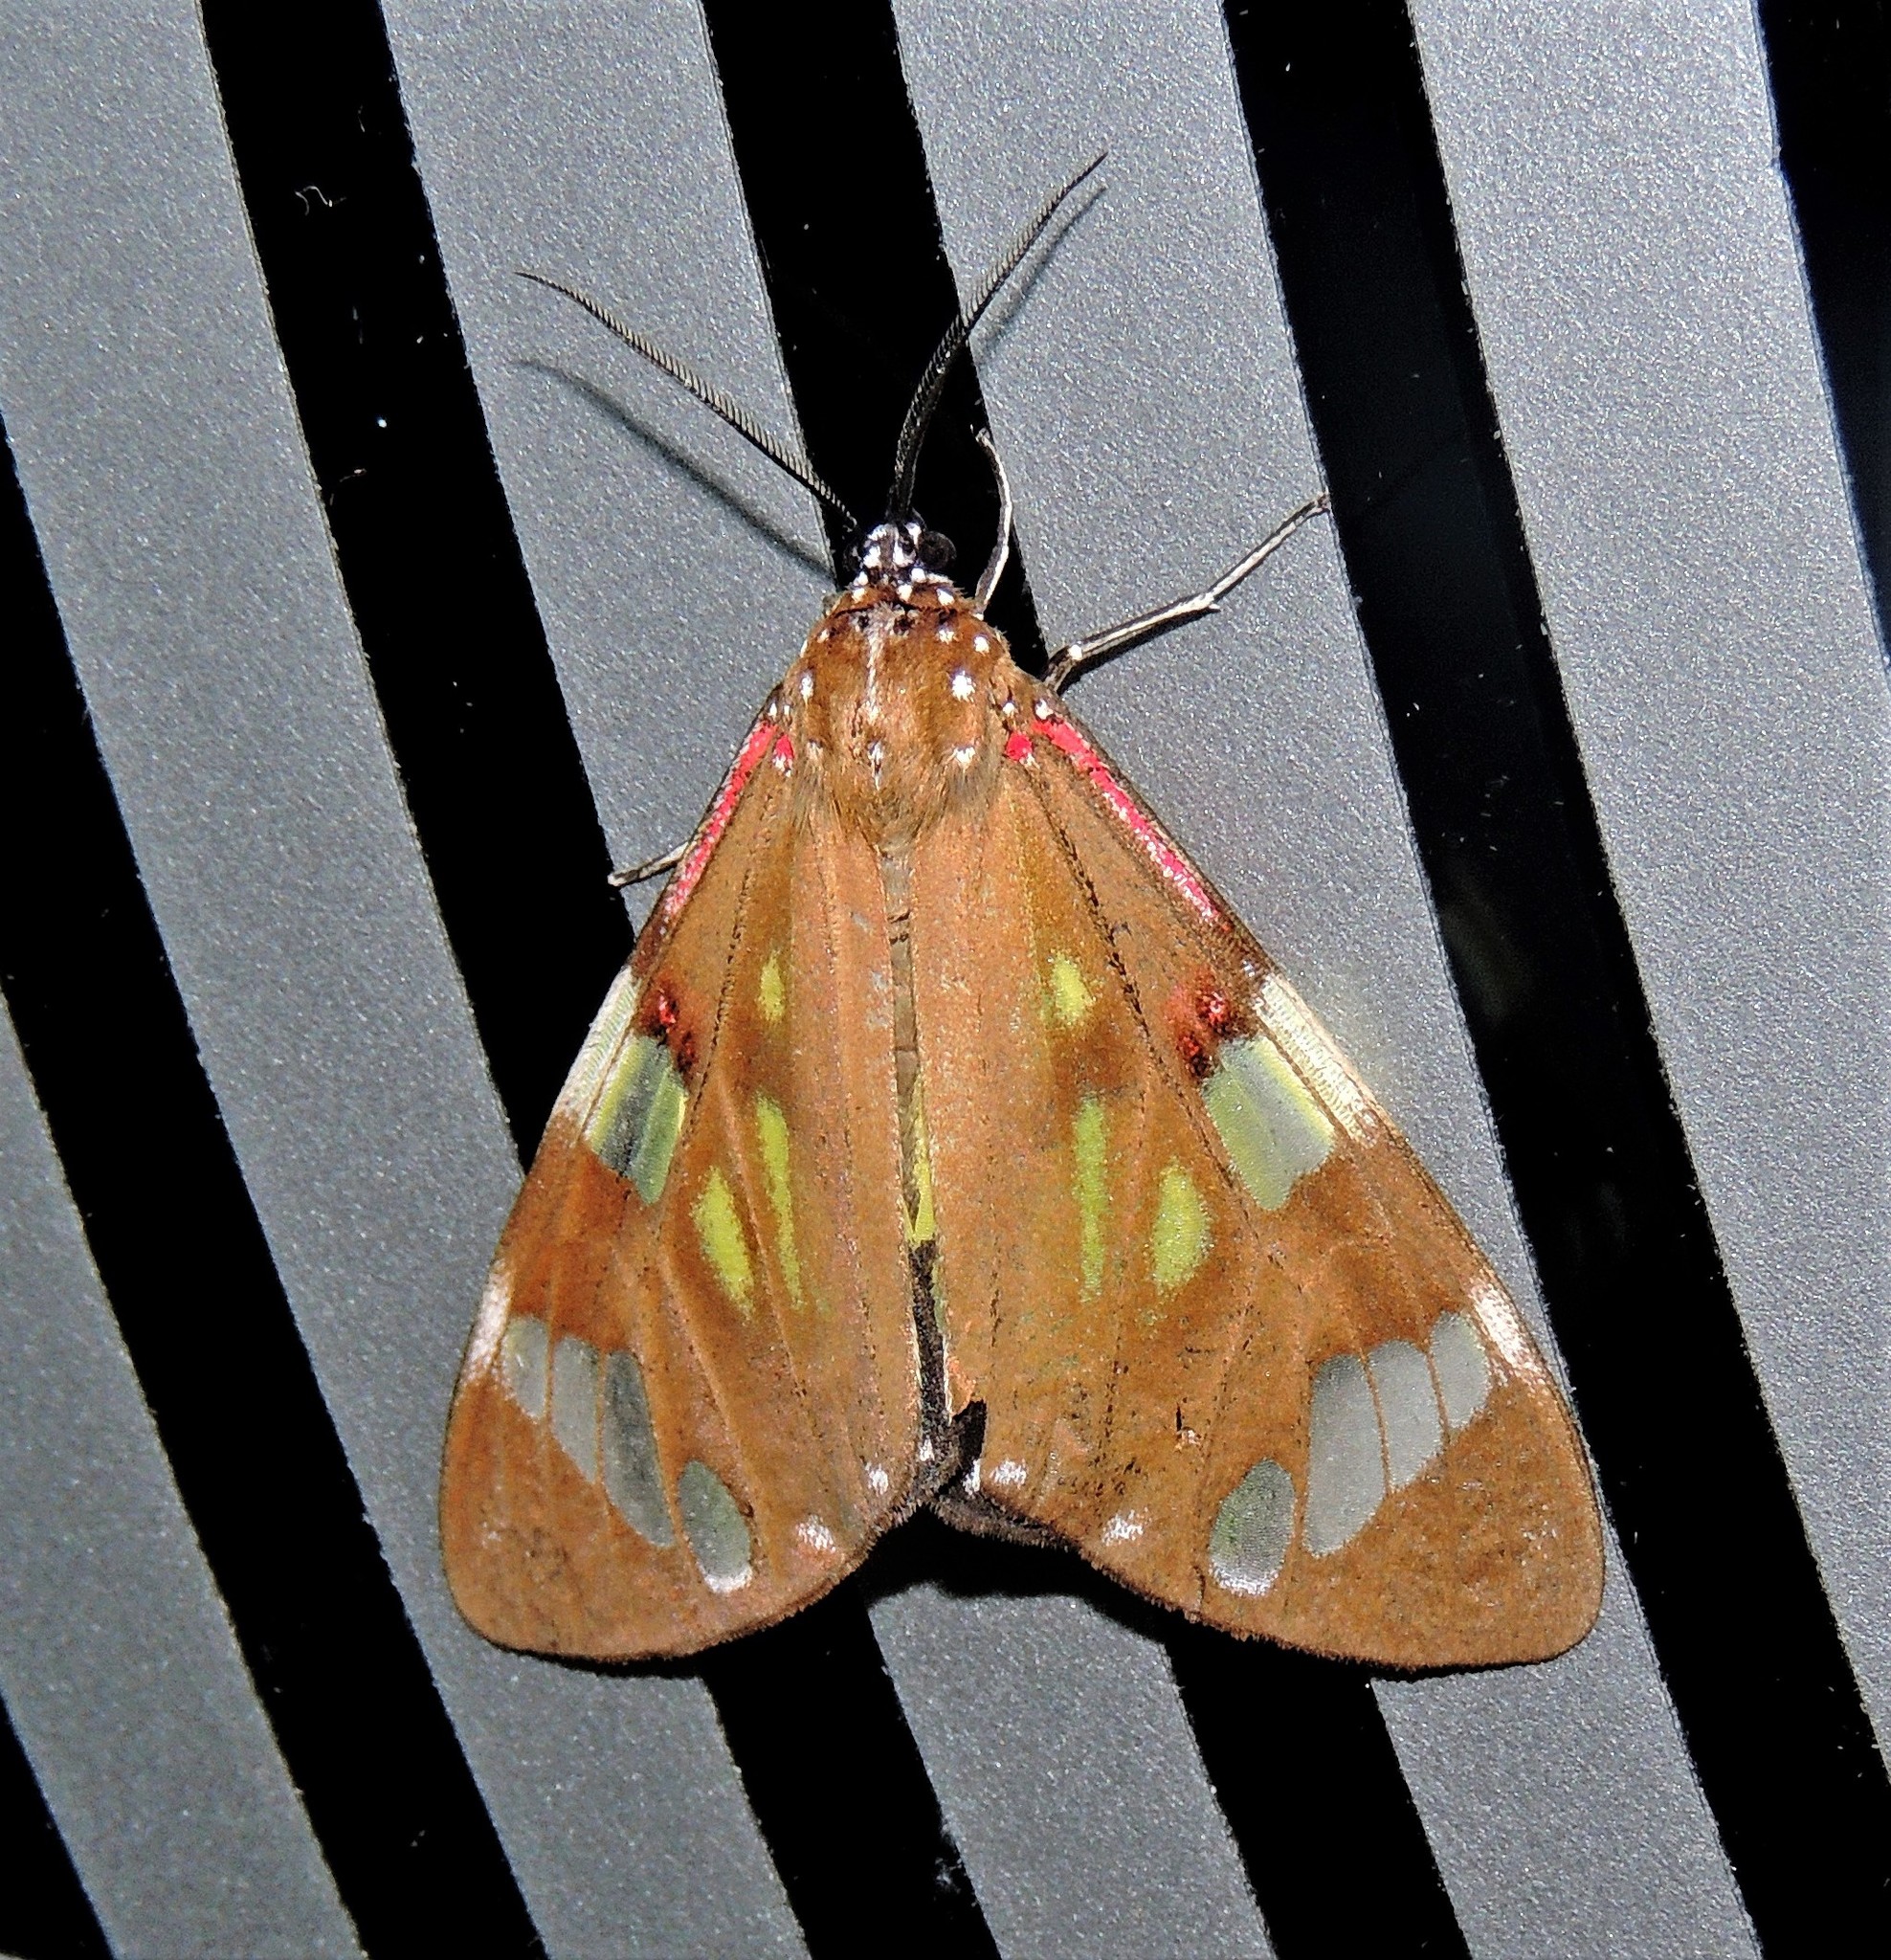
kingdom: Animalia
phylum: Arthropoda
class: Insecta
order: Lepidoptera
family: Erebidae
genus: Phaloe
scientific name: Phaloe cruenta
